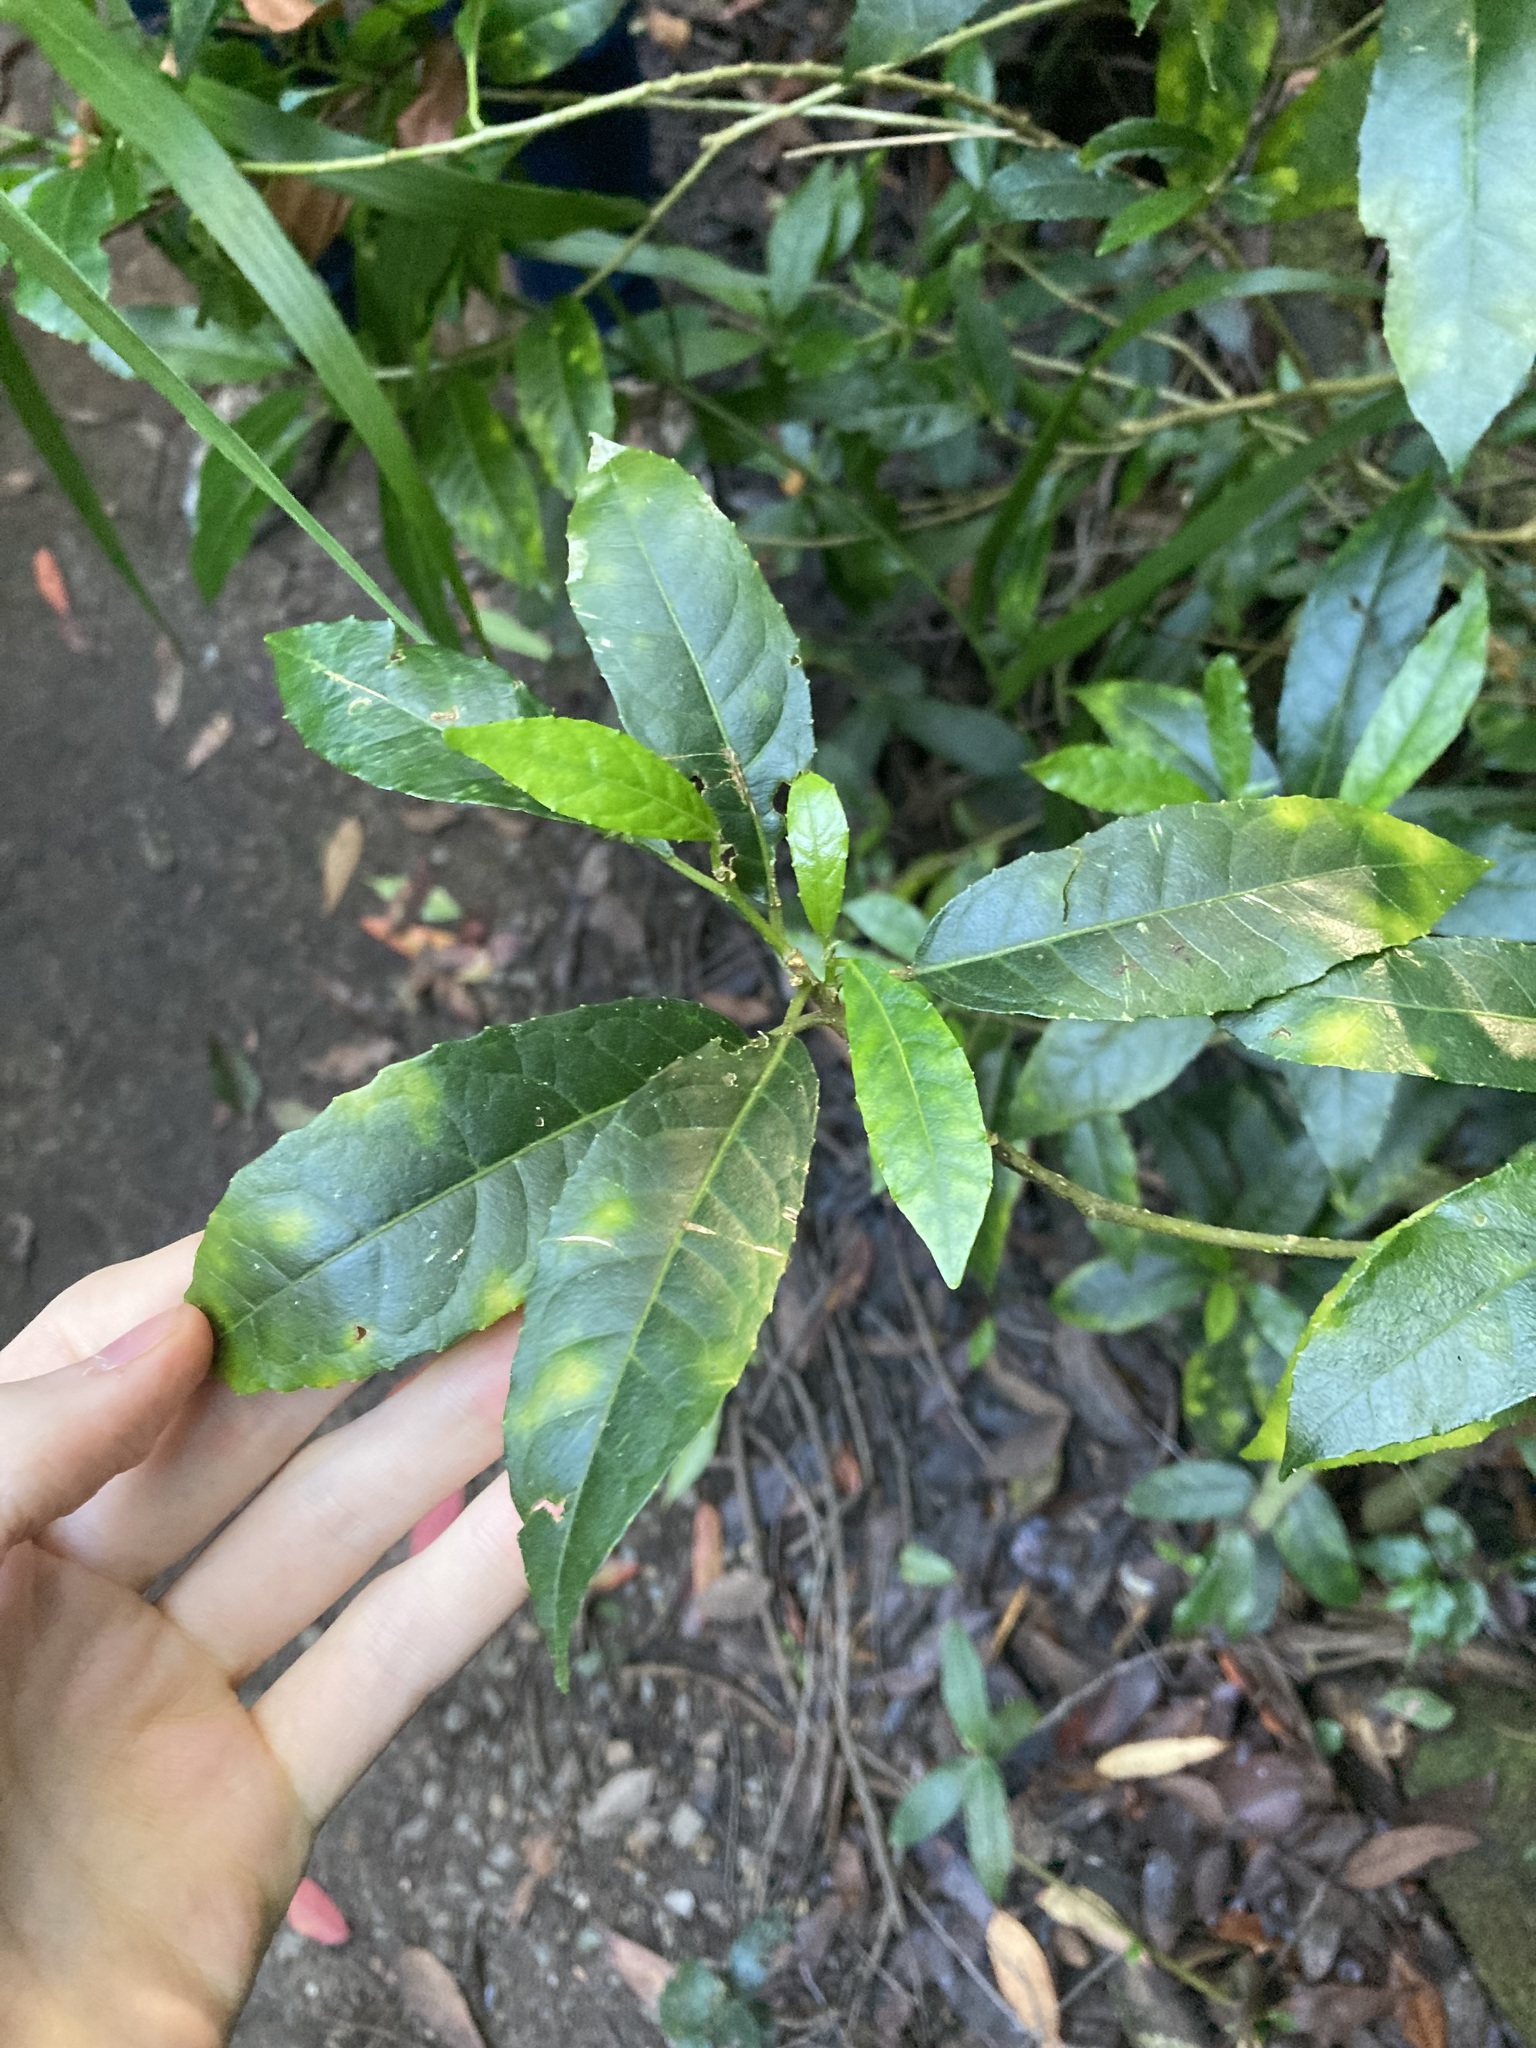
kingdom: Plantae
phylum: Tracheophyta
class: Magnoliopsida
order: Malpighiales
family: Euphorbiaceae
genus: Claoxylon
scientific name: Claoxylon australe
